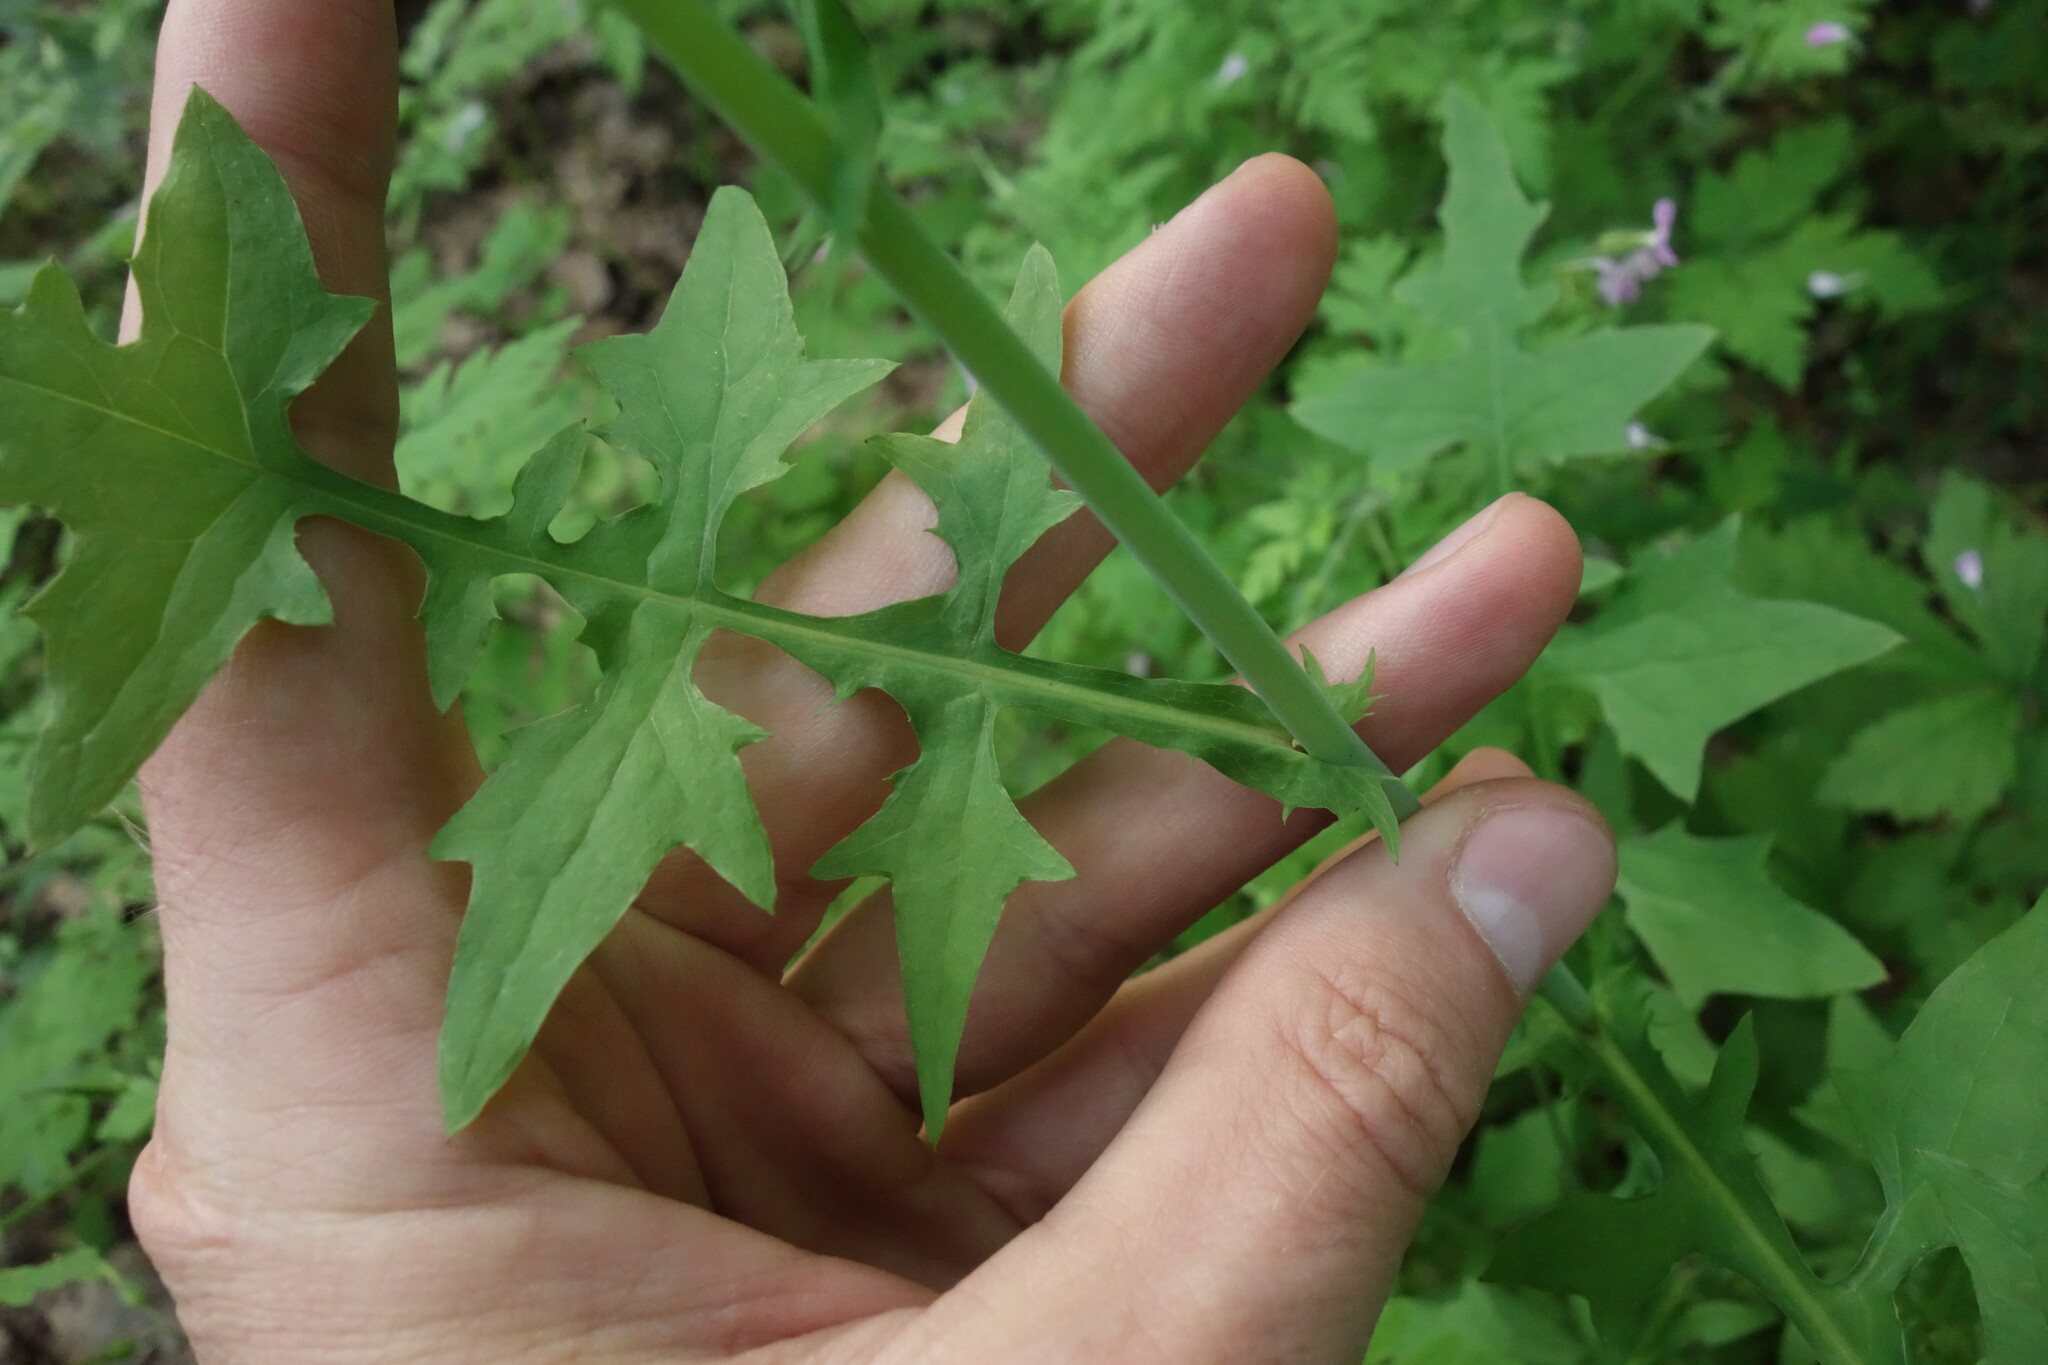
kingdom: Plantae
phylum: Tracheophyta
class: Magnoliopsida
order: Asterales
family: Asteraceae
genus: Mycelis
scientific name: Mycelis muralis
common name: Wall lettuce
